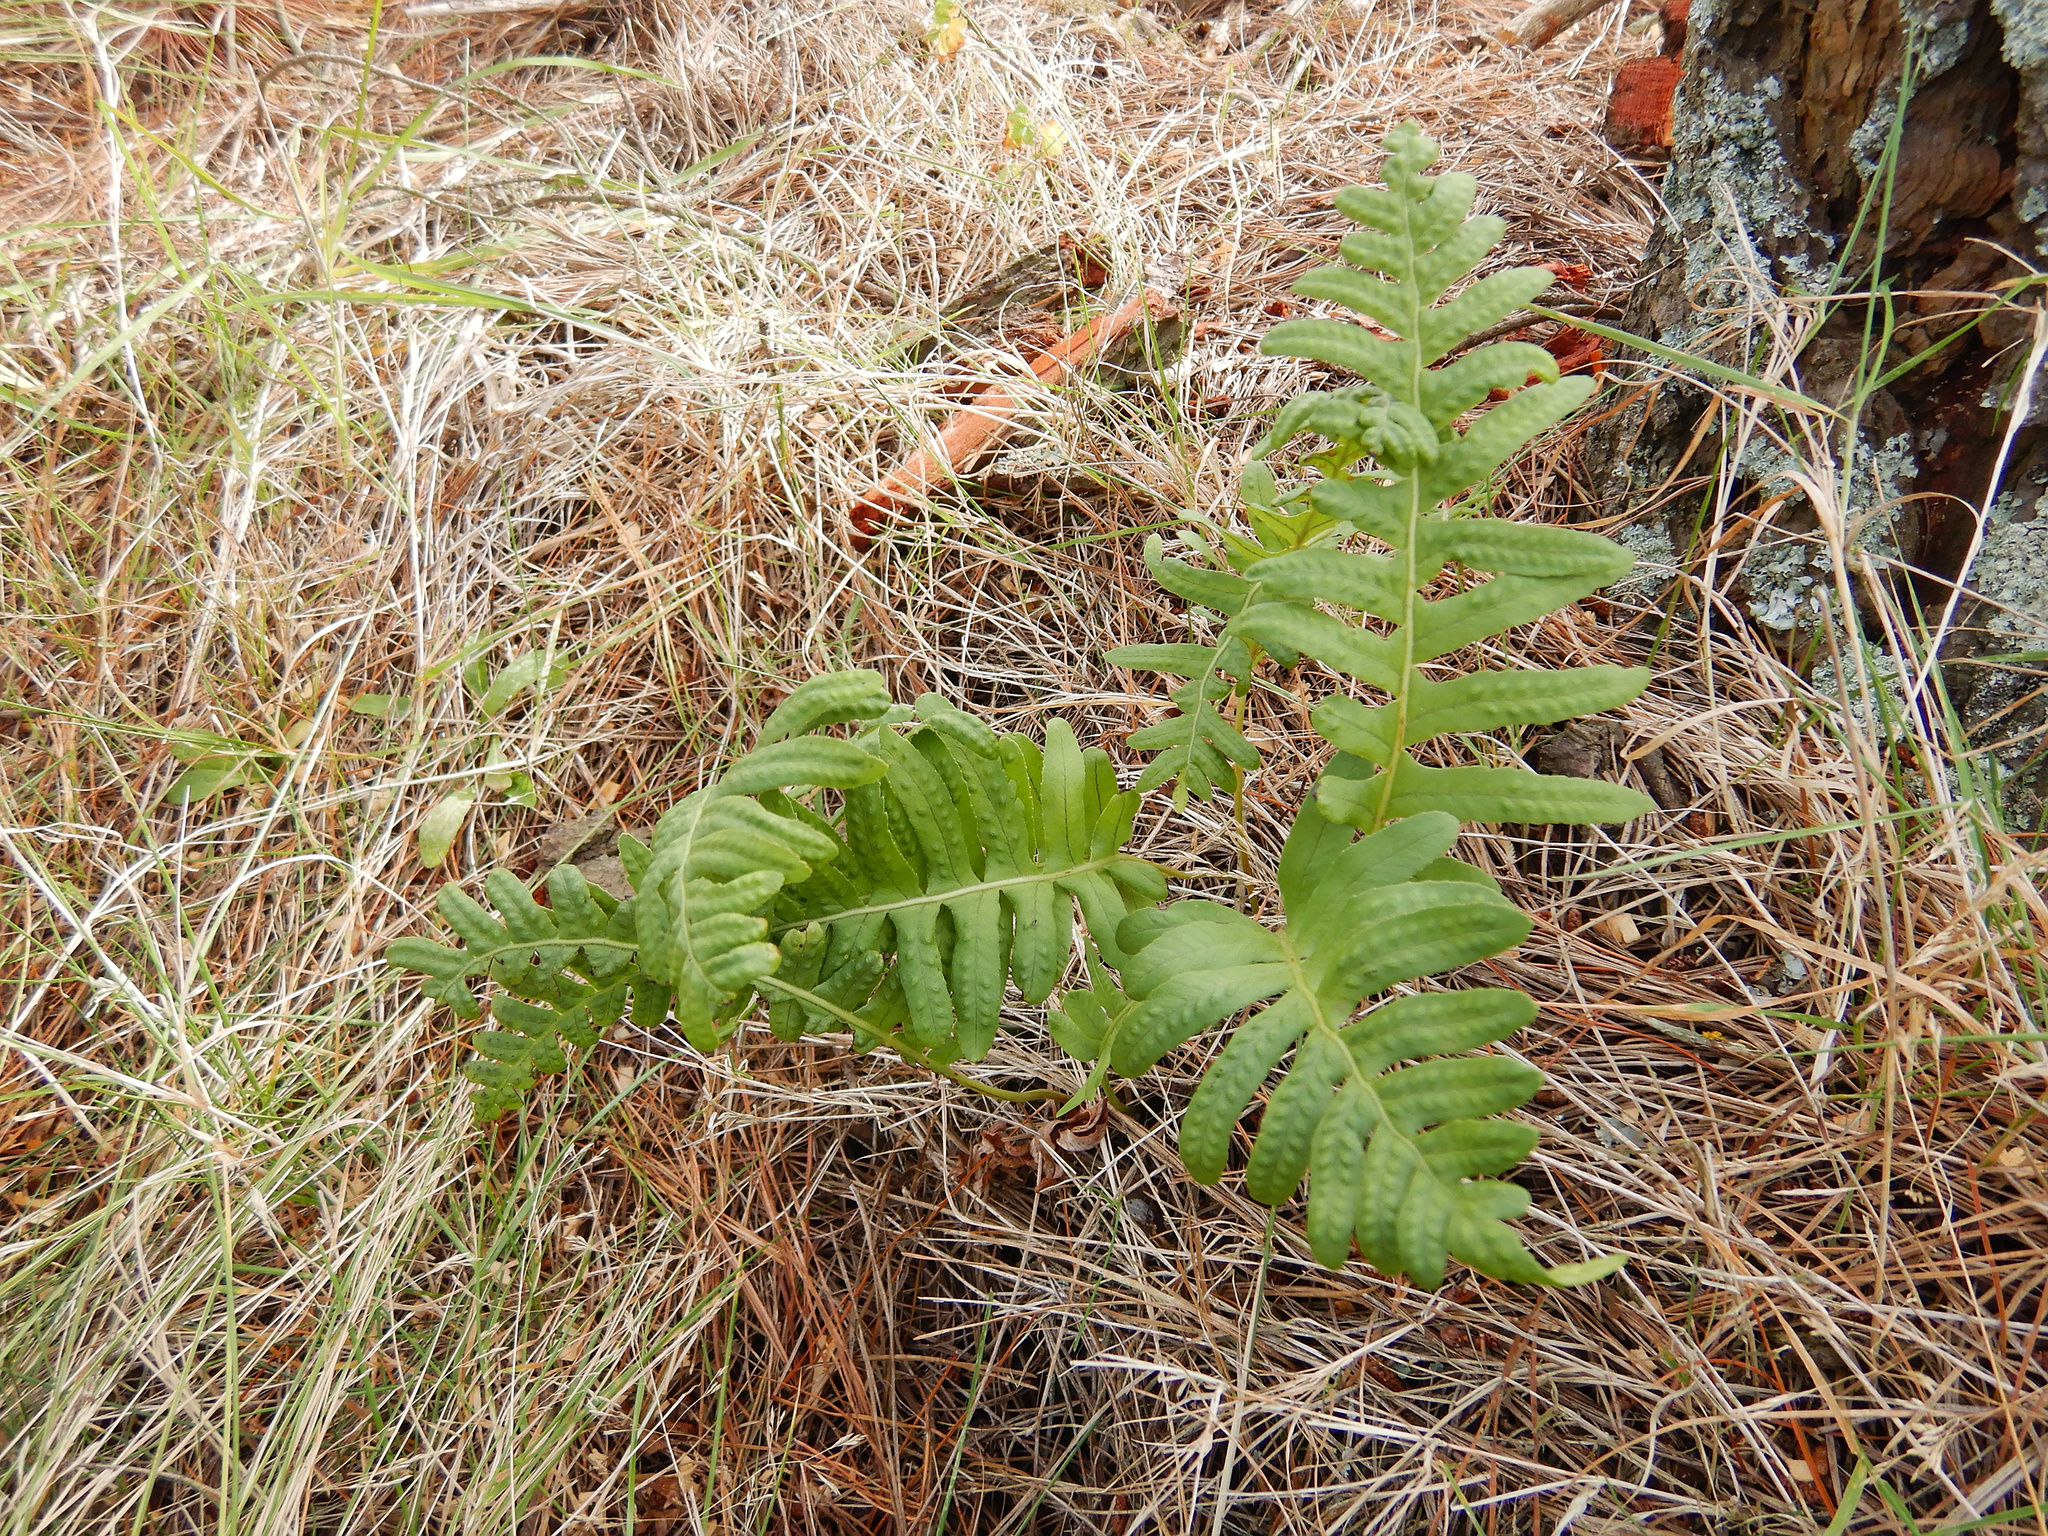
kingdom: Plantae
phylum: Tracheophyta
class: Polypodiopsida
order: Polypodiales
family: Polypodiaceae
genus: Polypodium
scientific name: Polypodium vulgare
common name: Common polypody
